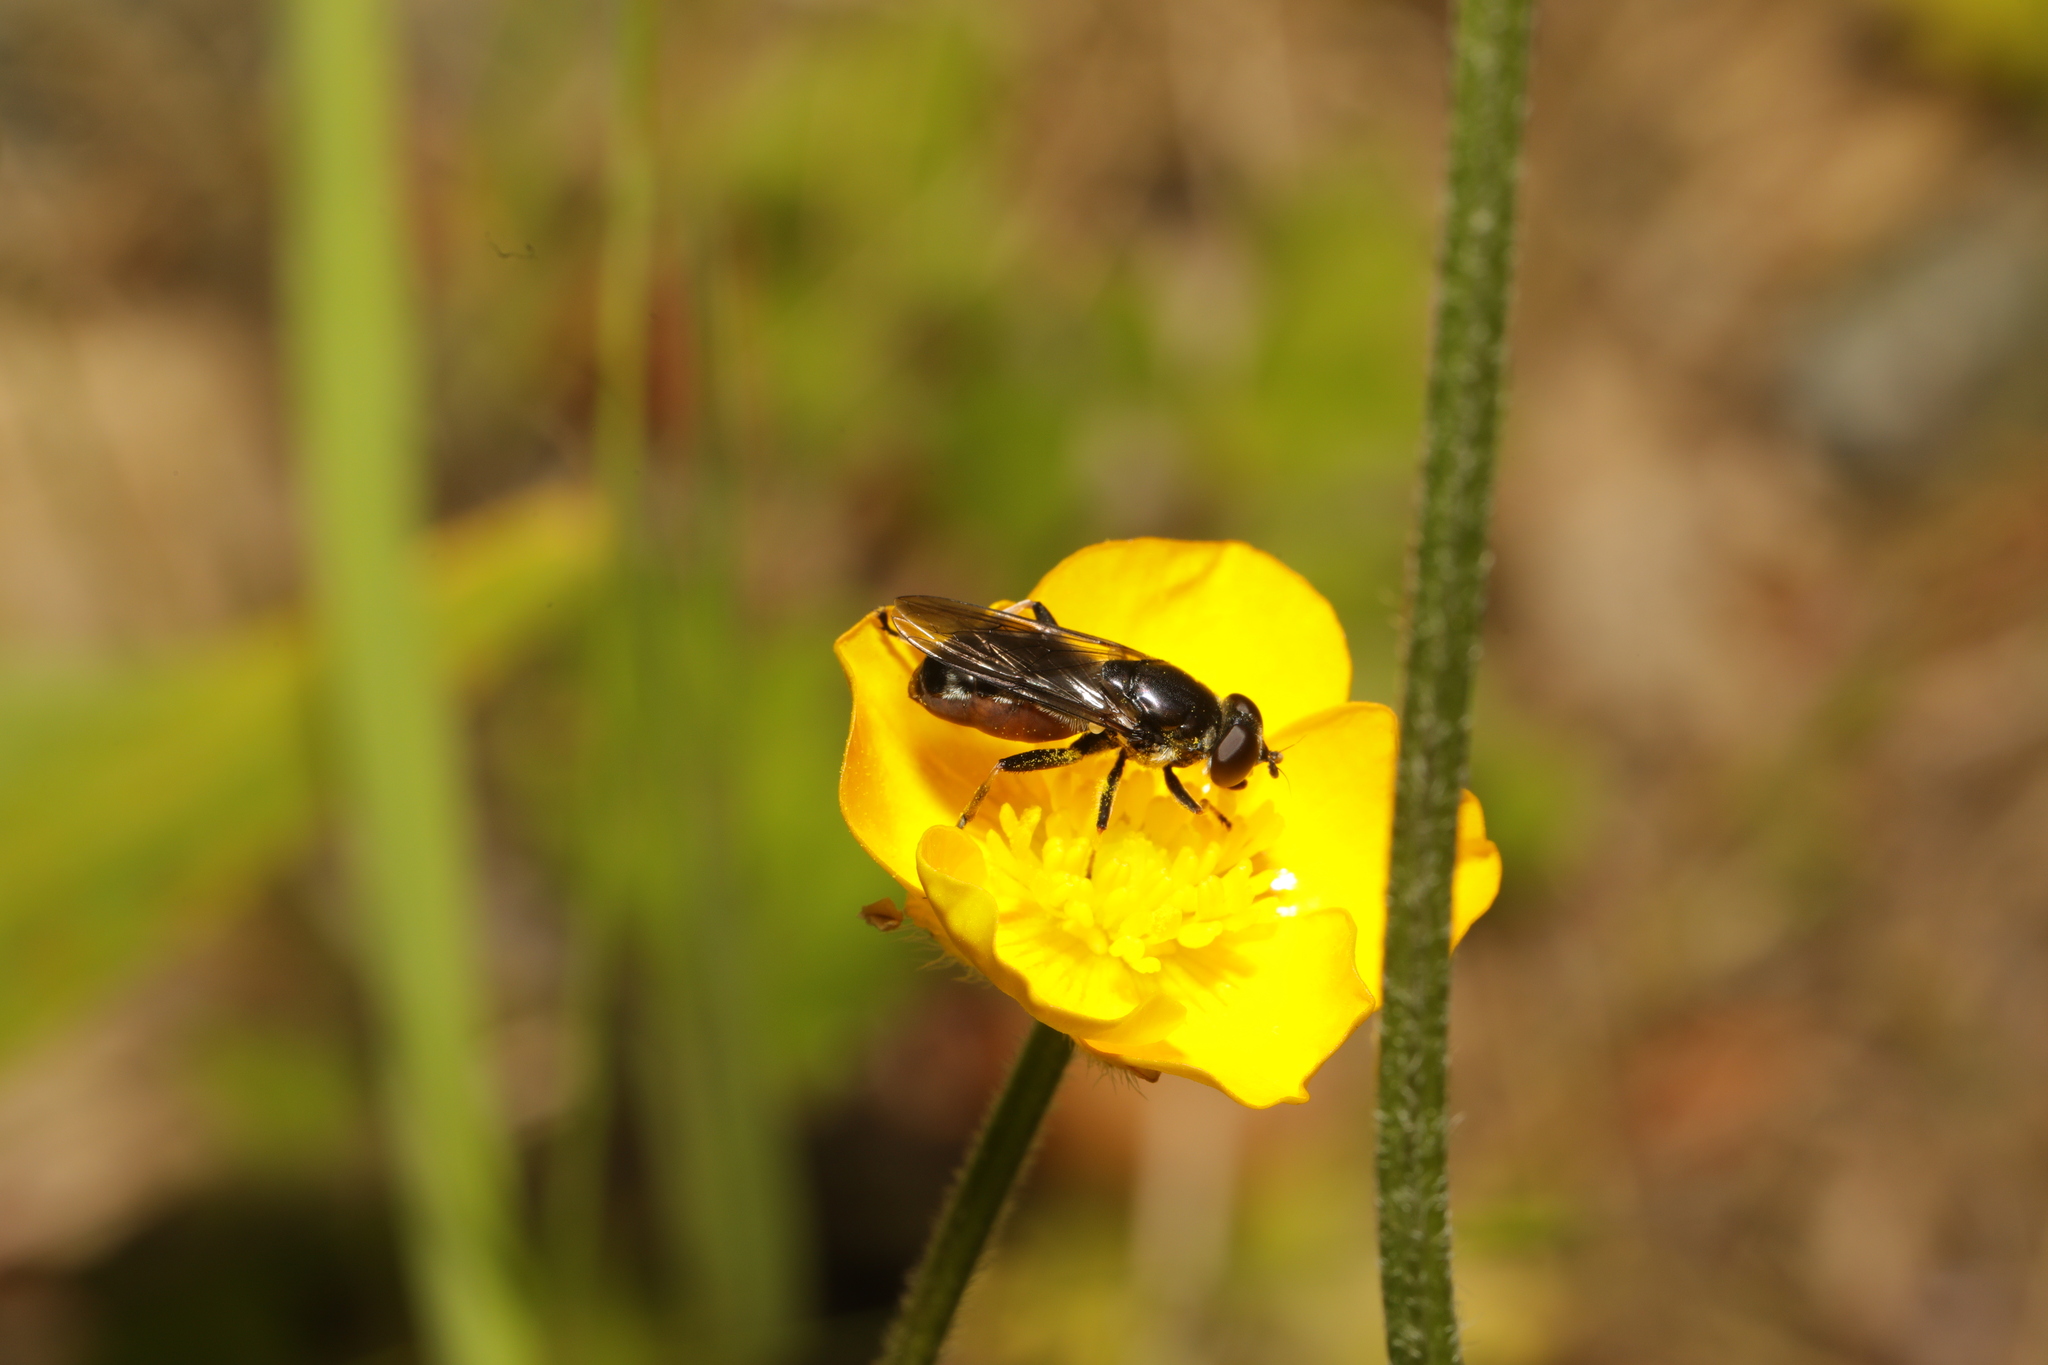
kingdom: Animalia
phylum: Arthropoda
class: Insecta
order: Diptera
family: Syrphidae
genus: Tropidia
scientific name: Tropidia scita
